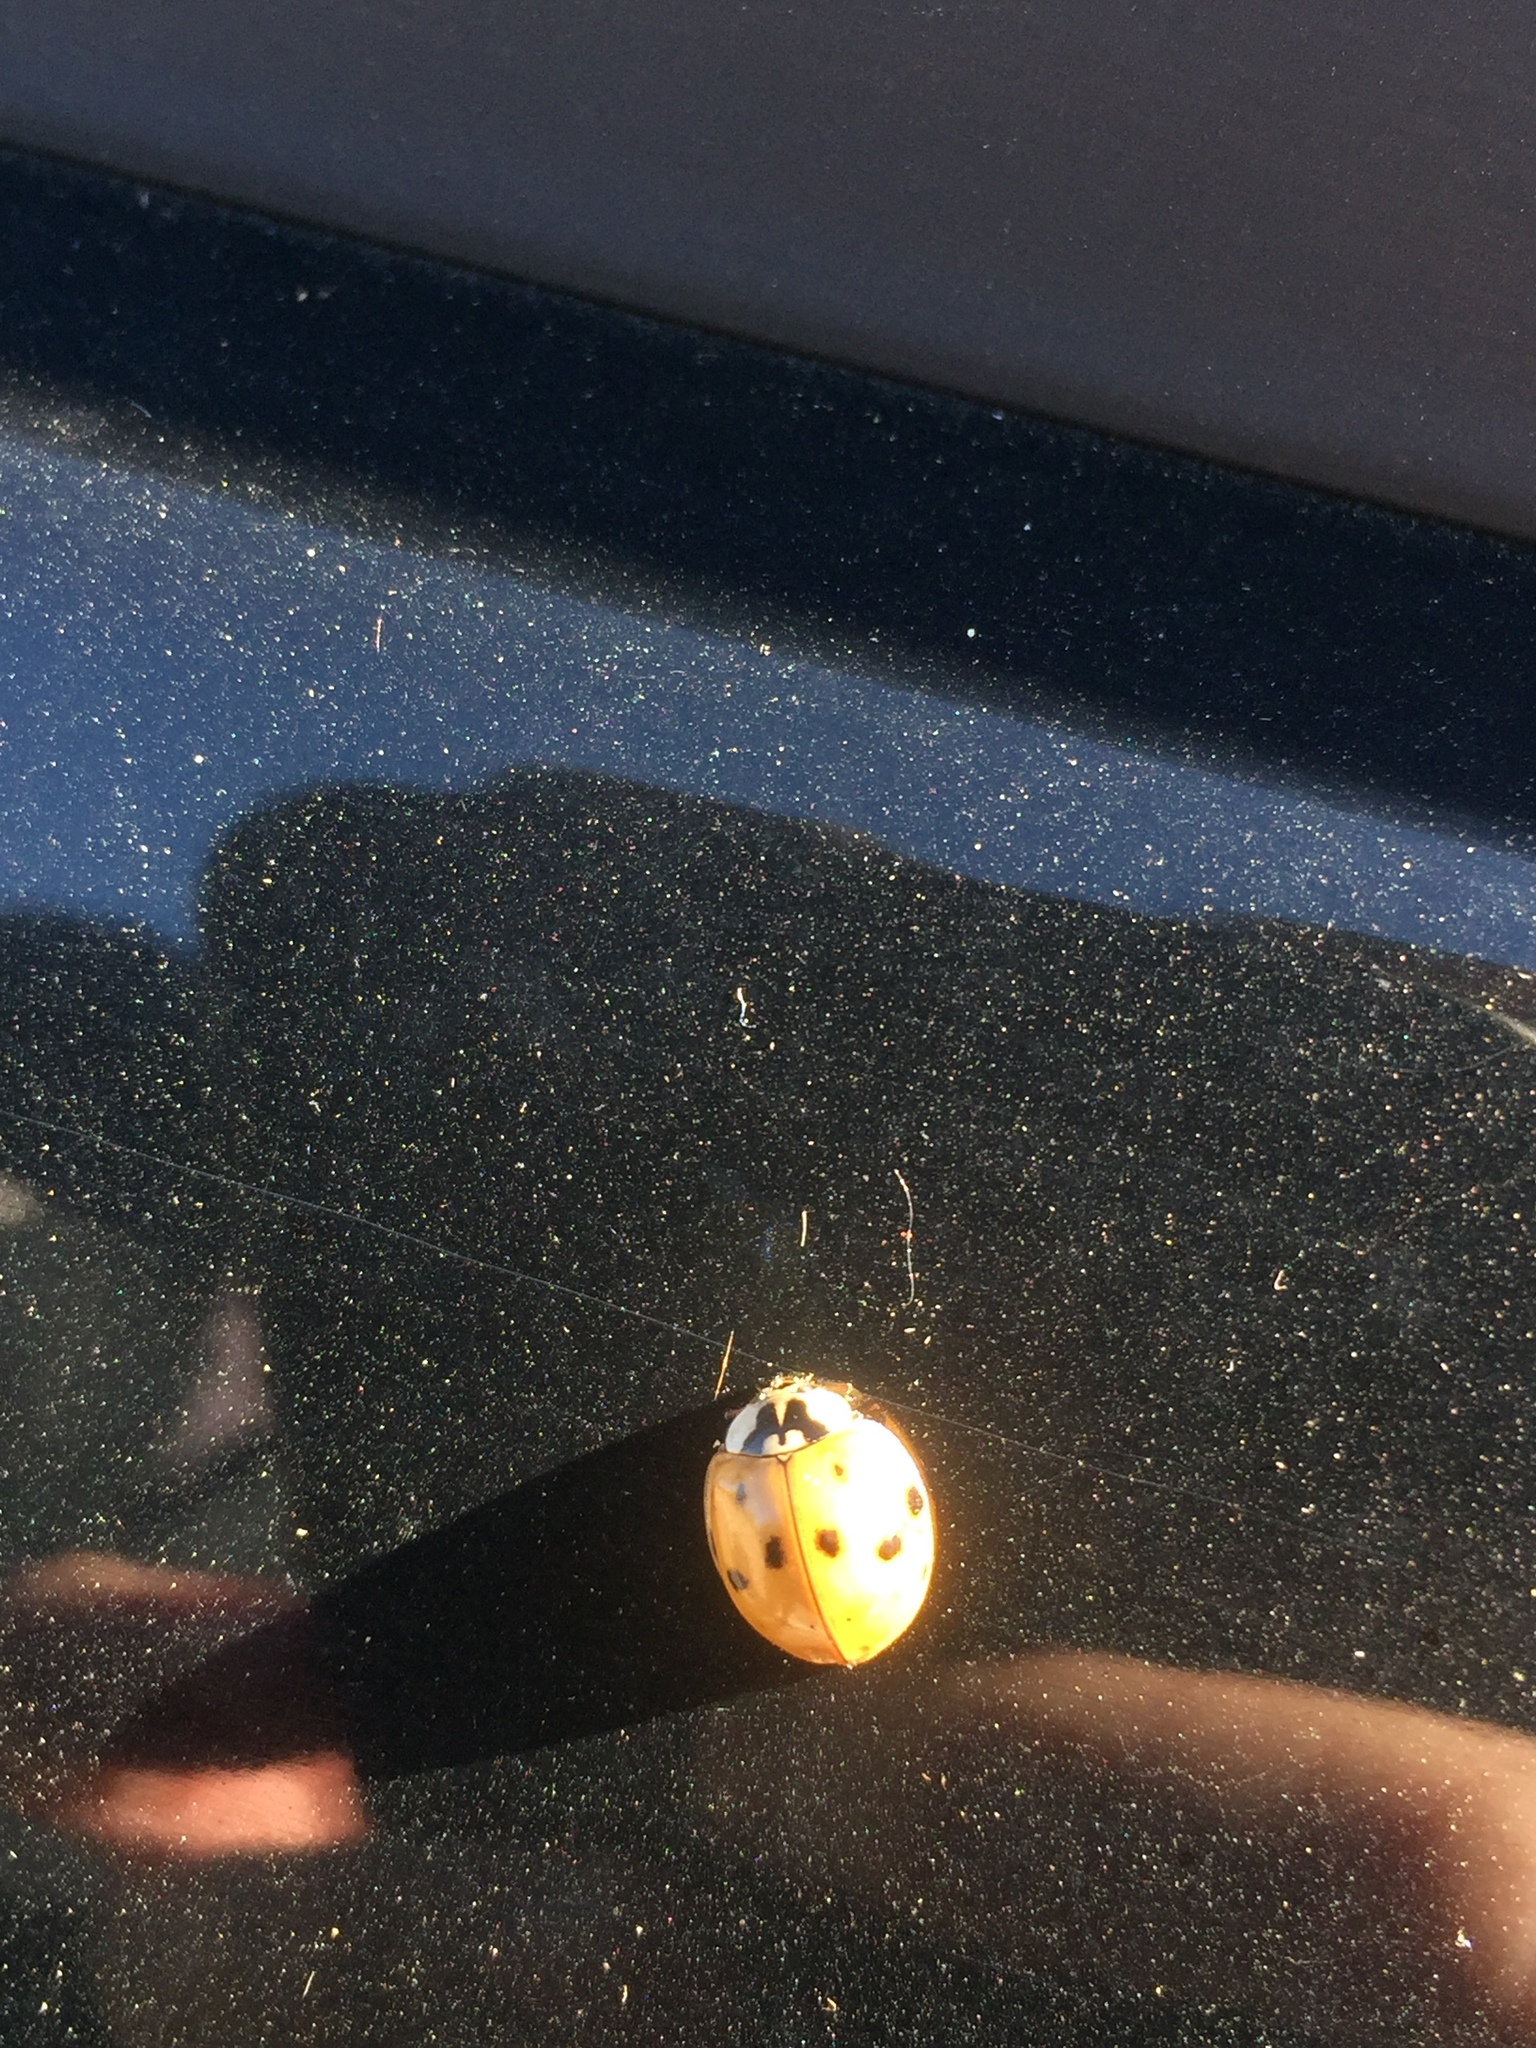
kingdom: Animalia
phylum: Arthropoda
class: Insecta
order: Coleoptera
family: Coccinellidae
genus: Harmonia
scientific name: Harmonia axyridis
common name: Harlequin ladybird
